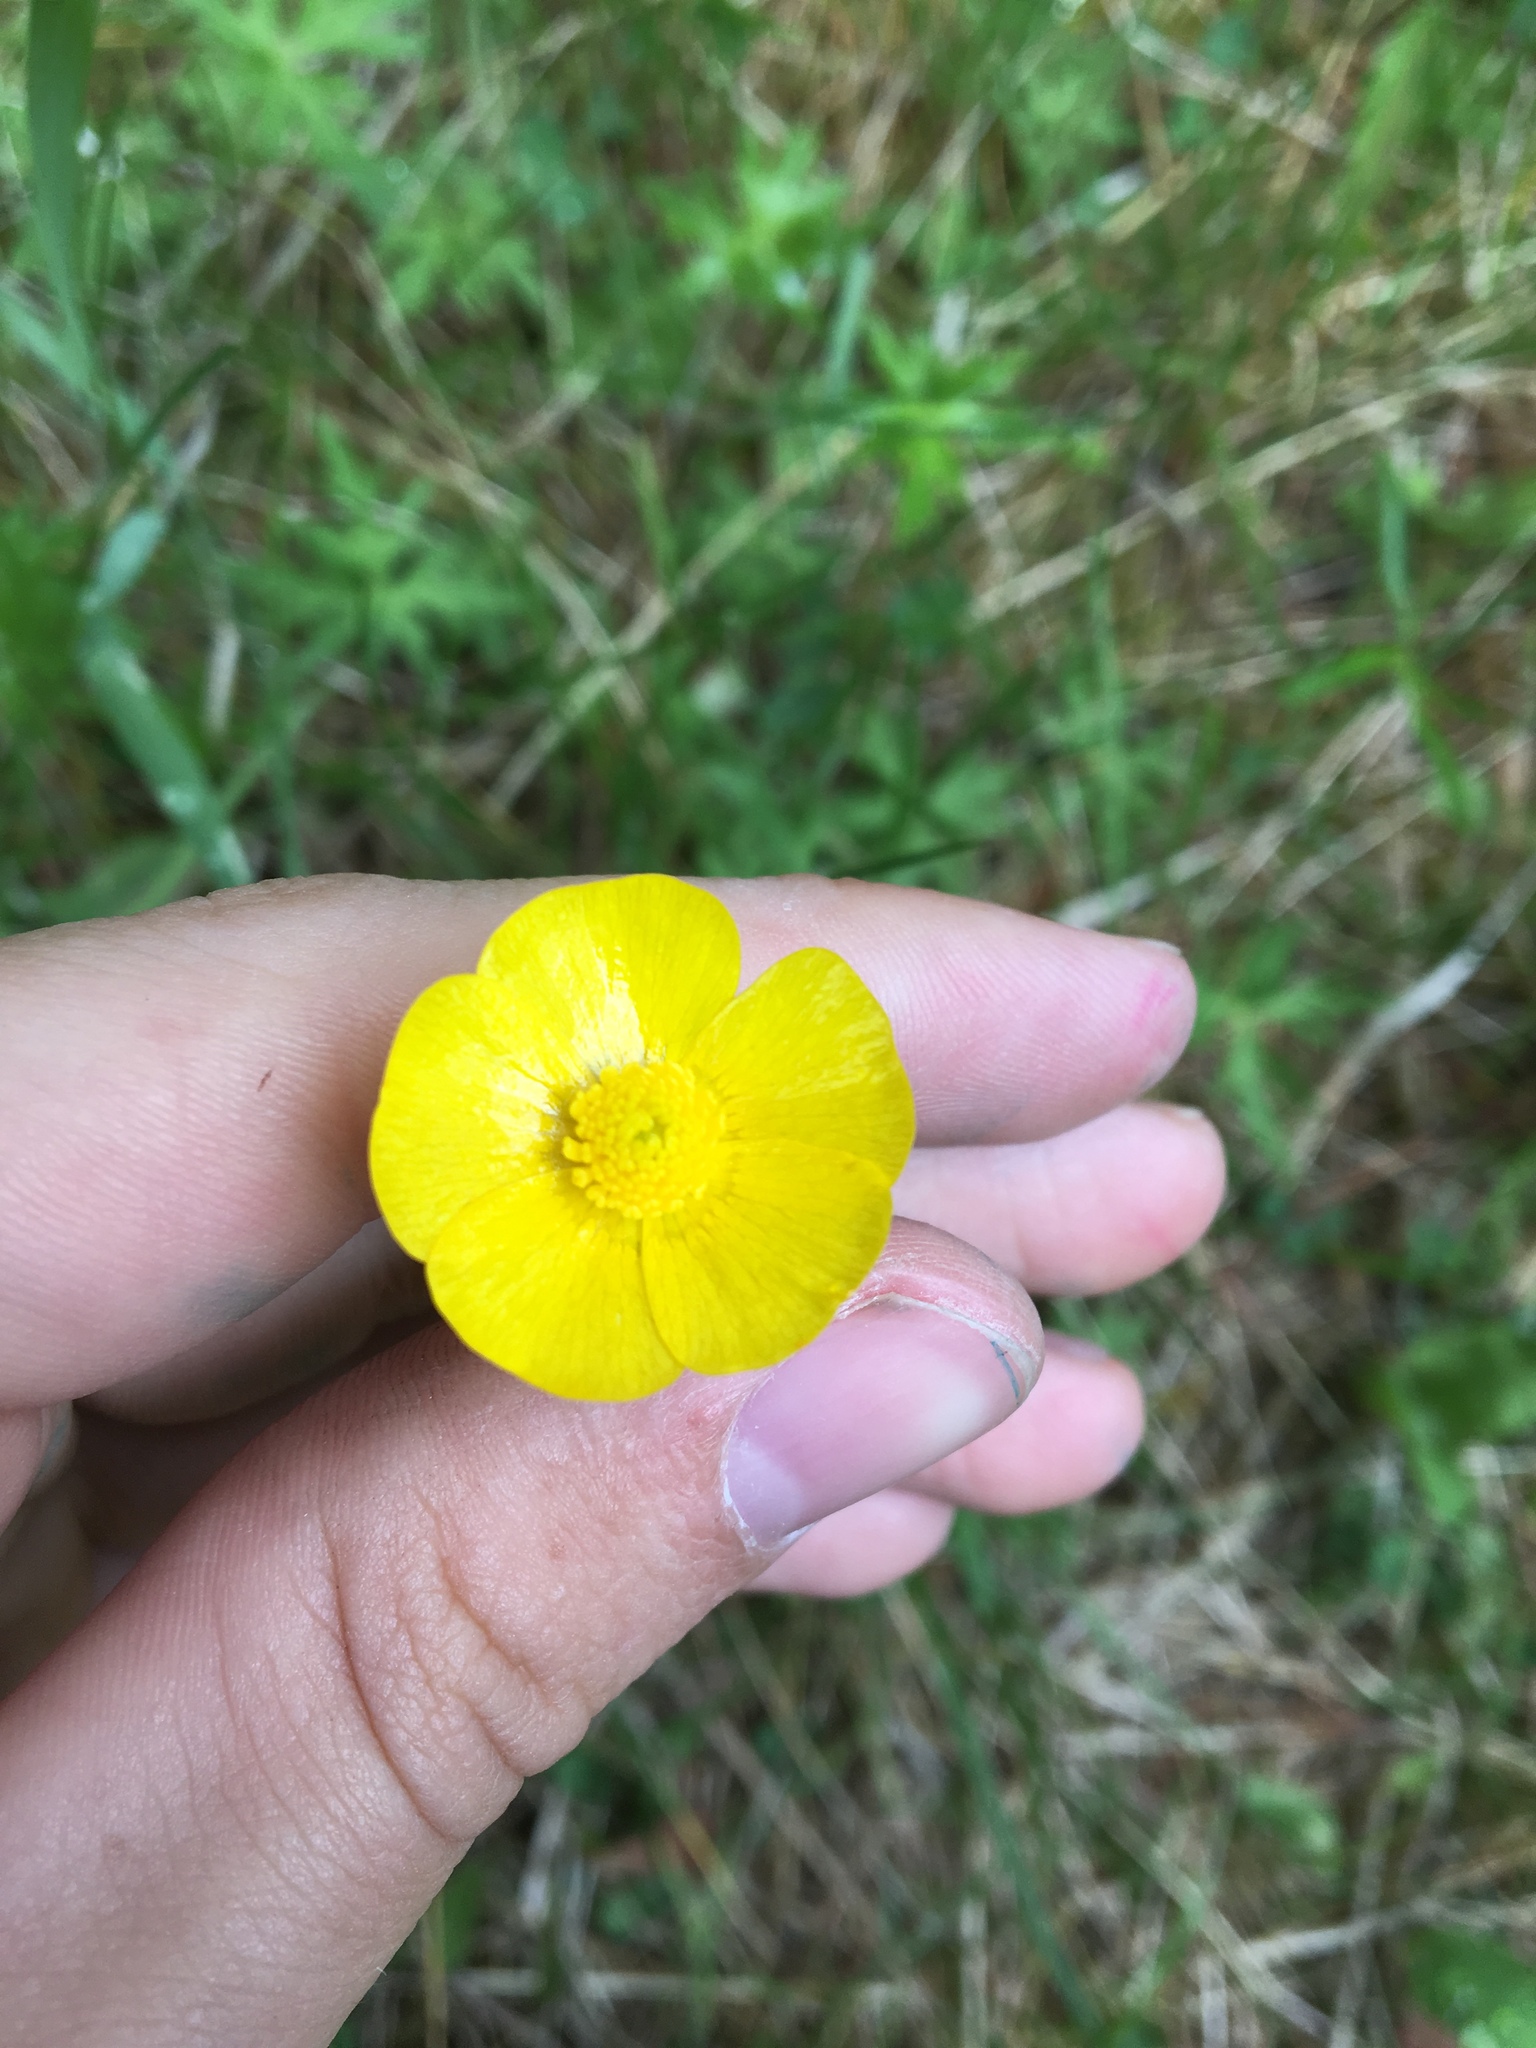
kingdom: Plantae
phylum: Tracheophyta
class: Magnoliopsida
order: Ranunculales
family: Ranunculaceae
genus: Ranunculus
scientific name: Ranunculus acris
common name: Meadow buttercup
